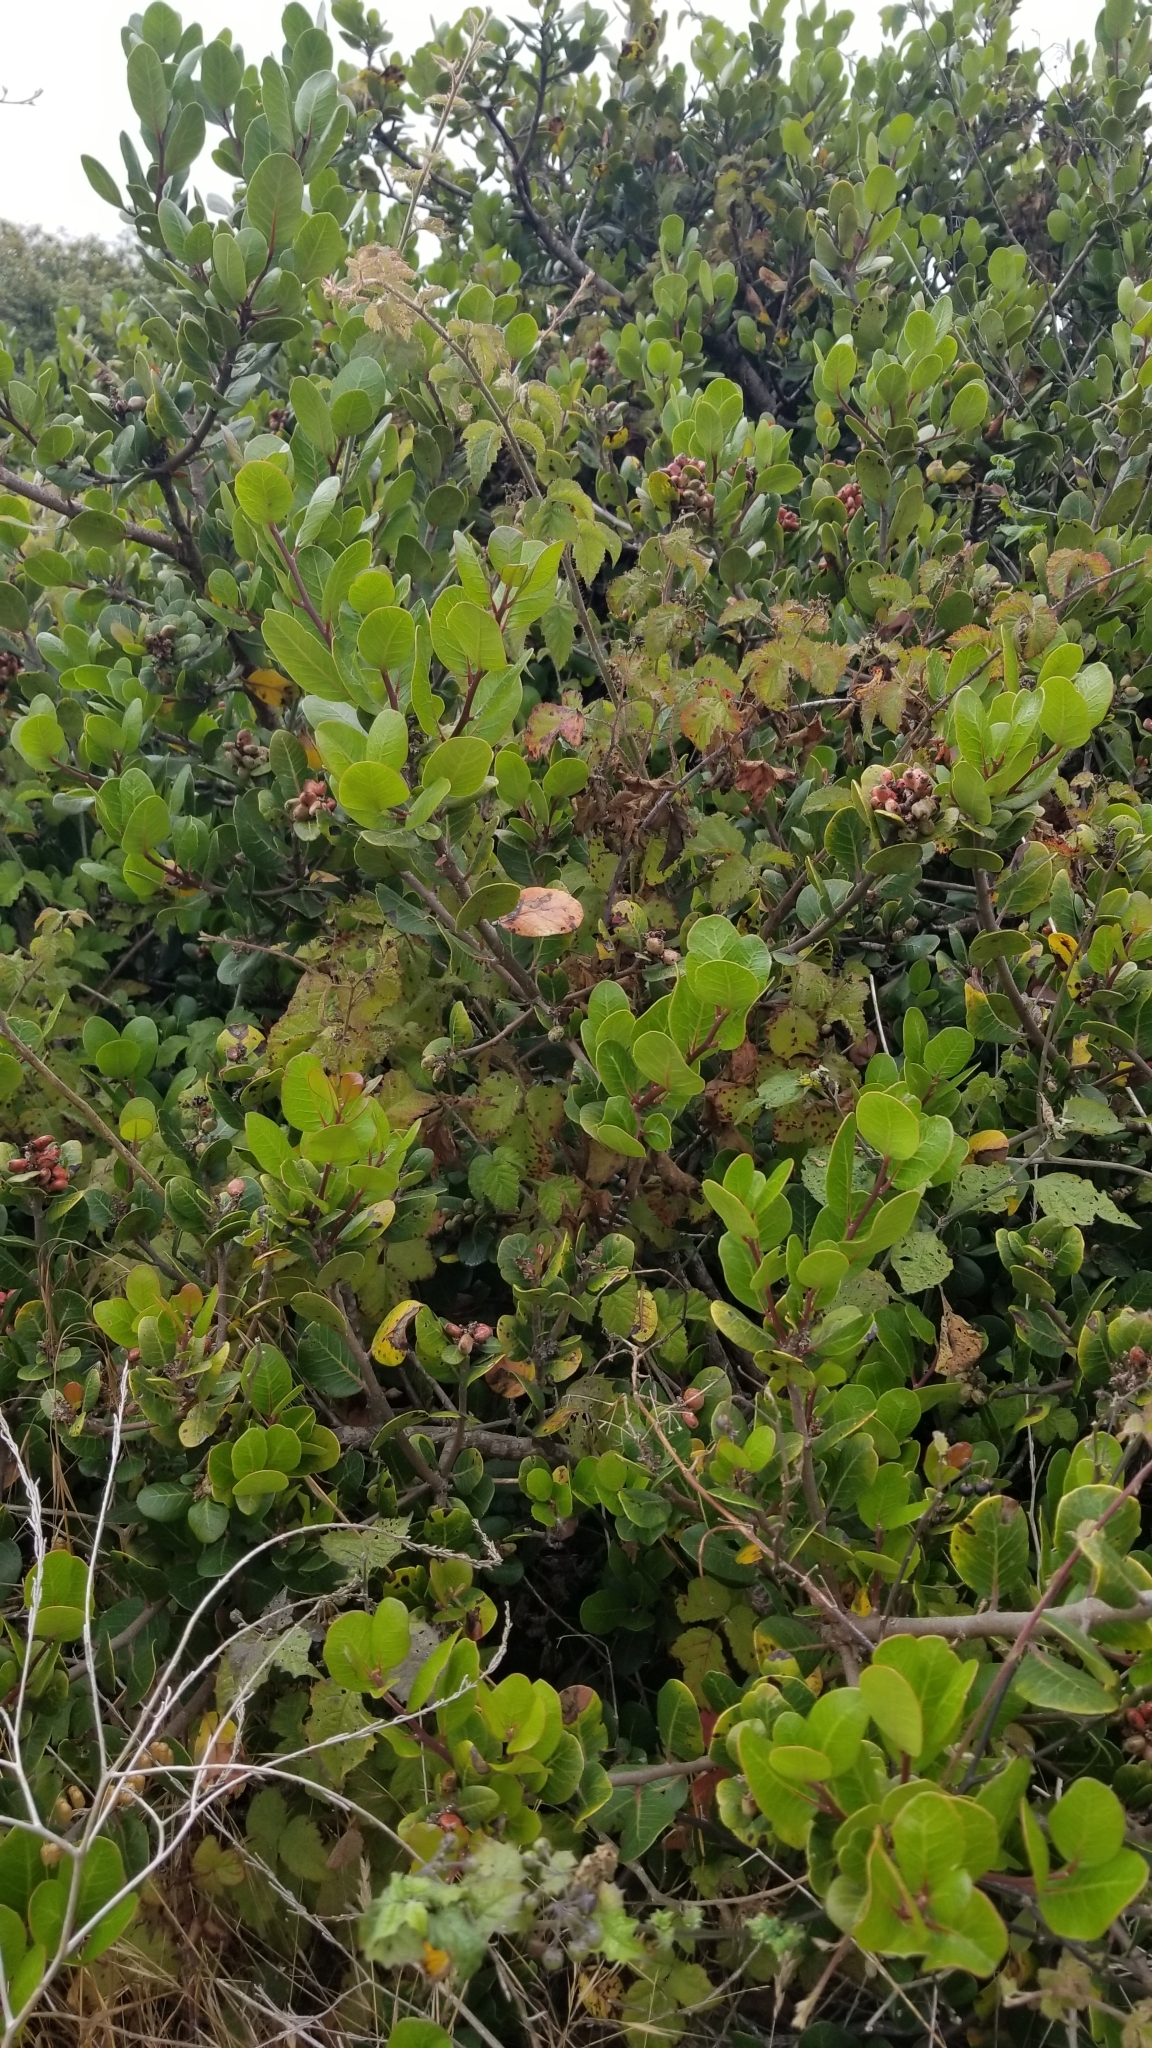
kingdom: Plantae
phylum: Tracheophyta
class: Magnoliopsida
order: Sapindales
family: Anacardiaceae
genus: Rhus
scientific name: Rhus integrifolia
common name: Lemonade sumac
